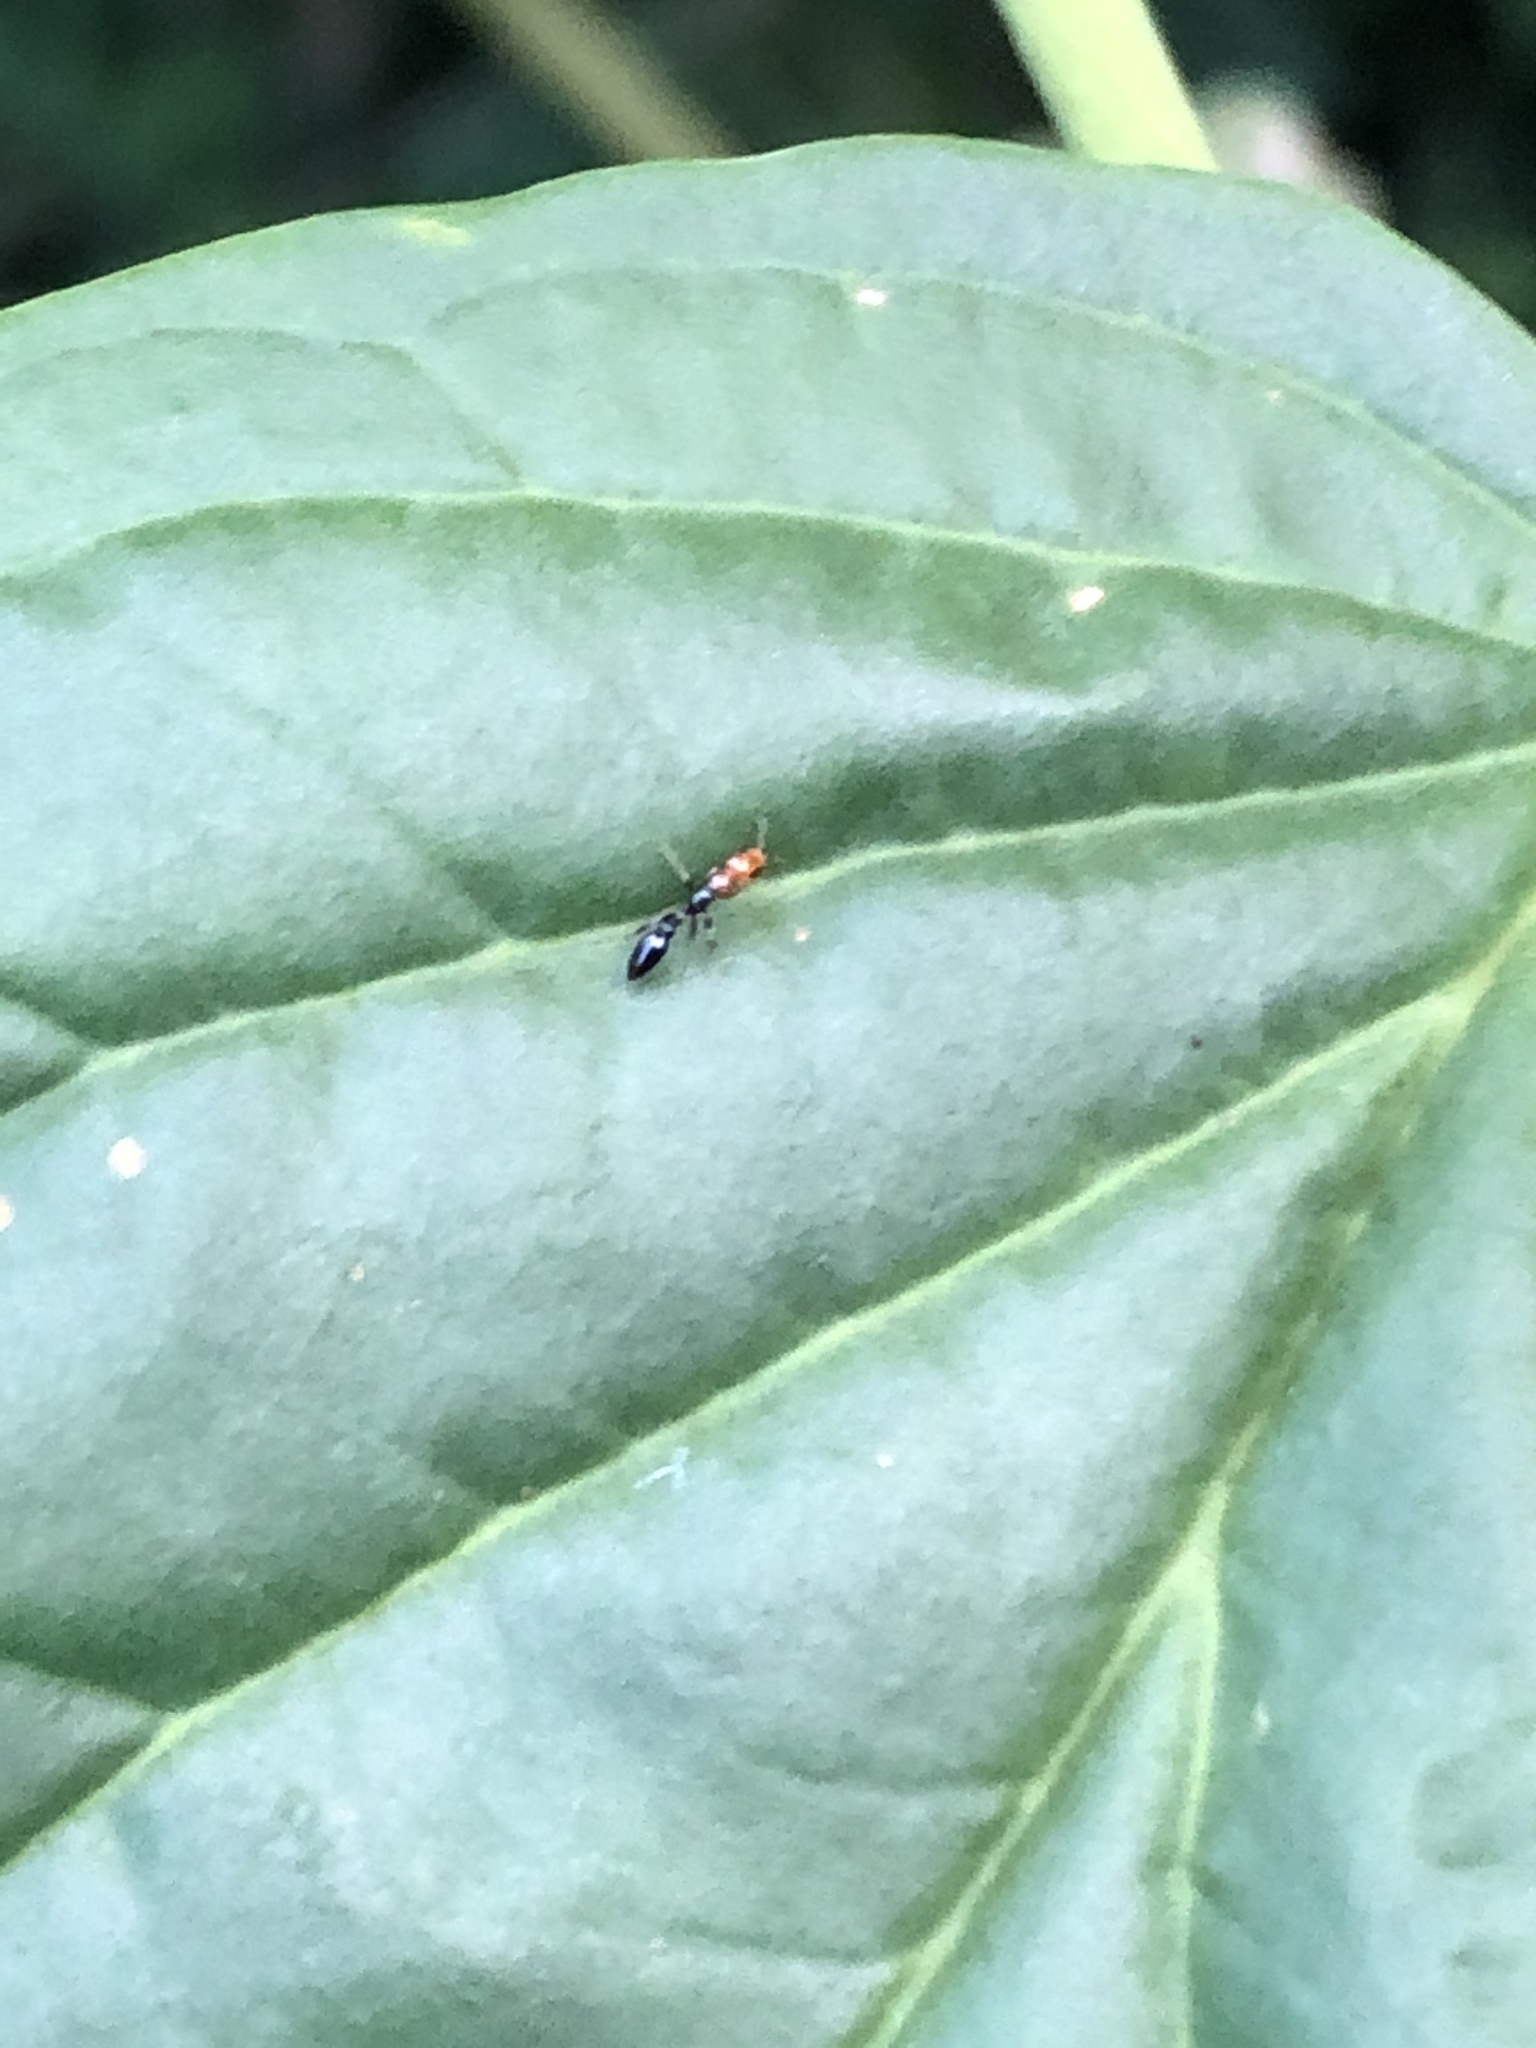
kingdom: Animalia
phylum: Arthropoda
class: Insecta
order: Hymenoptera
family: Formicidae
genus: Pseudomyrmex
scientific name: Pseudomyrmex peruvianus
